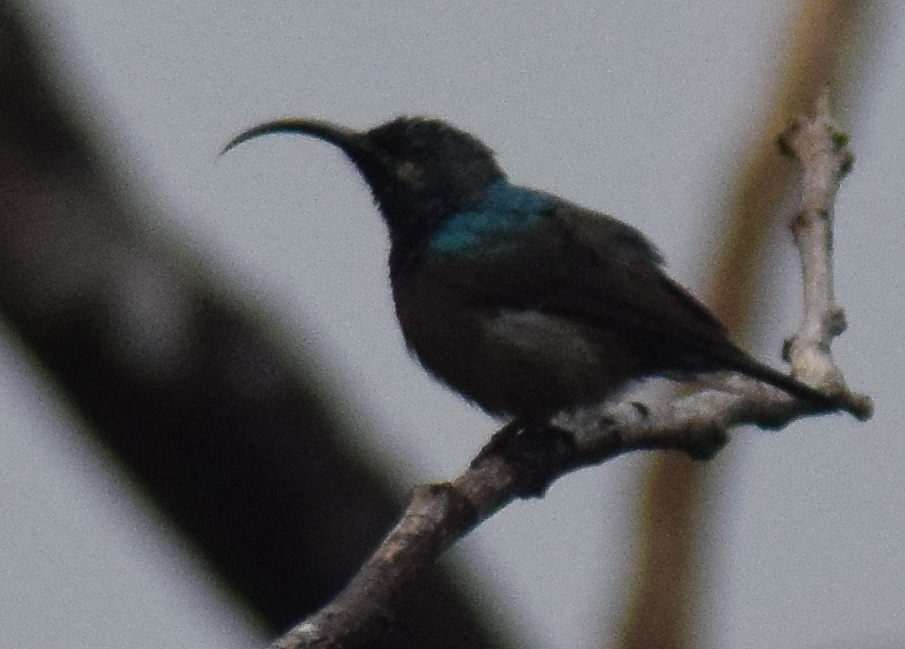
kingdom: Animalia
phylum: Chordata
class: Aves
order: Passeriformes
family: Nectariniidae
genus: Cinnyris
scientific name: Cinnyris lotenius
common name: Loten's sunbird
